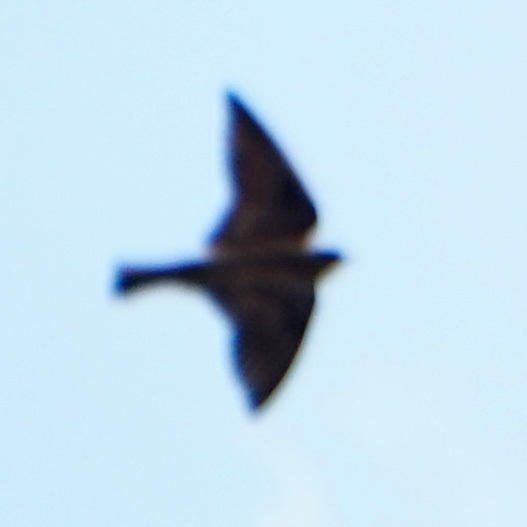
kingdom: Animalia
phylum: Chordata
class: Aves
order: Passeriformes
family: Hirundinidae
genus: Hirundo
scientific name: Hirundo rustica
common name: Barn swallow
